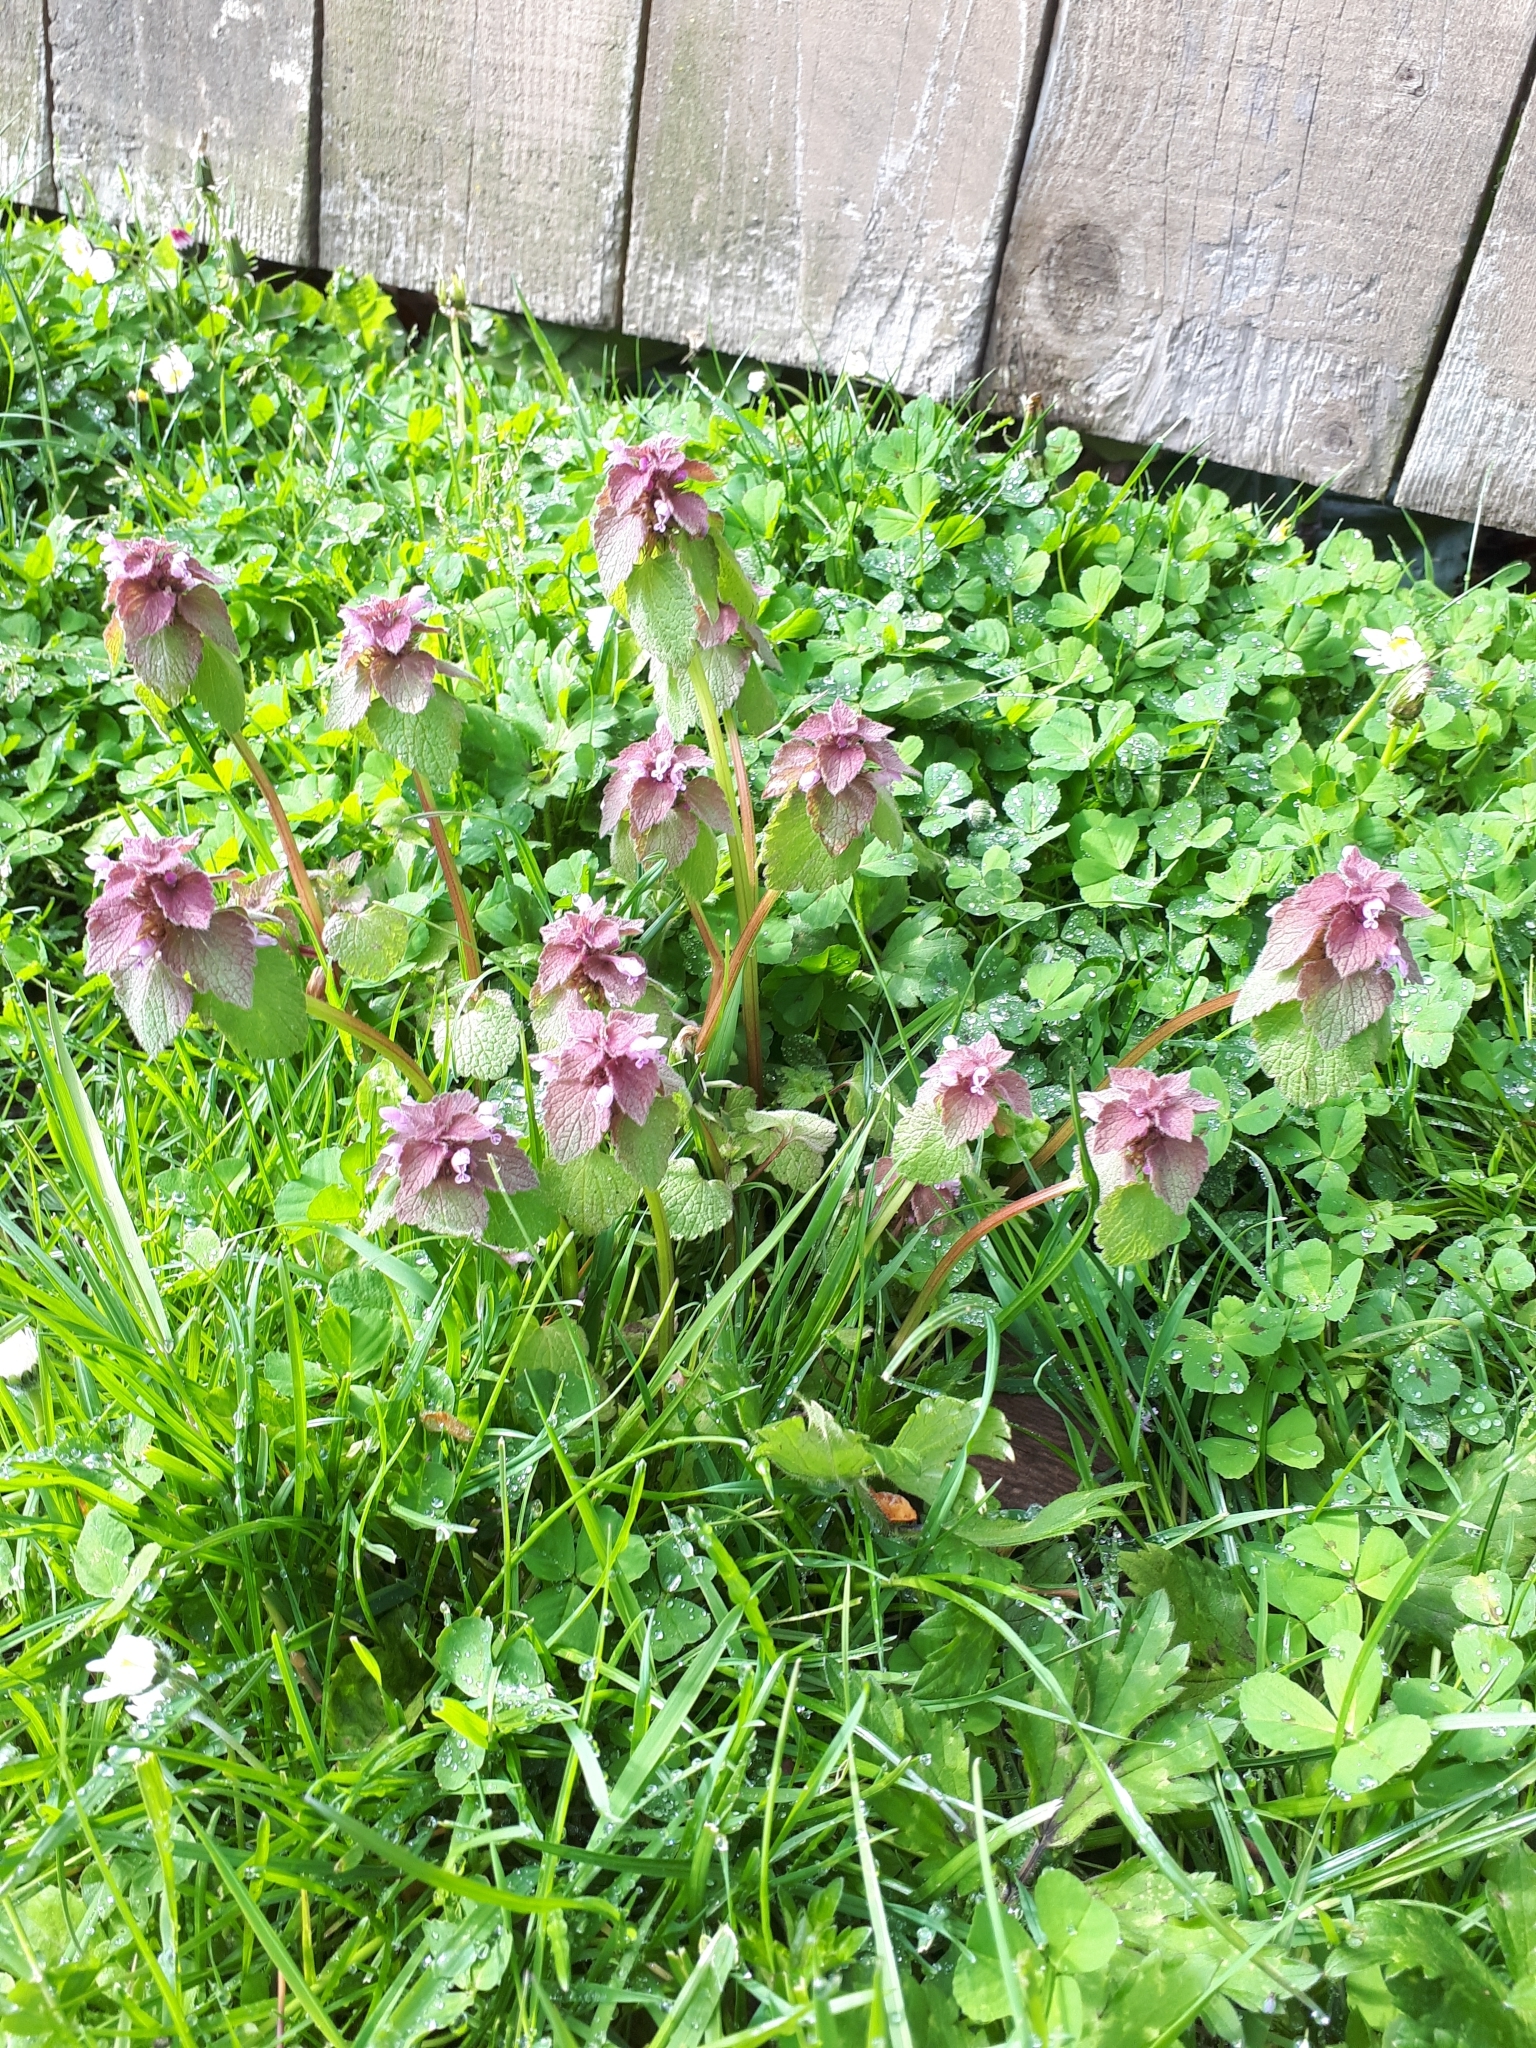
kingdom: Plantae
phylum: Tracheophyta
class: Magnoliopsida
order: Lamiales
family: Lamiaceae
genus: Lamium
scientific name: Lamium purpureum
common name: Red dead-nettle
